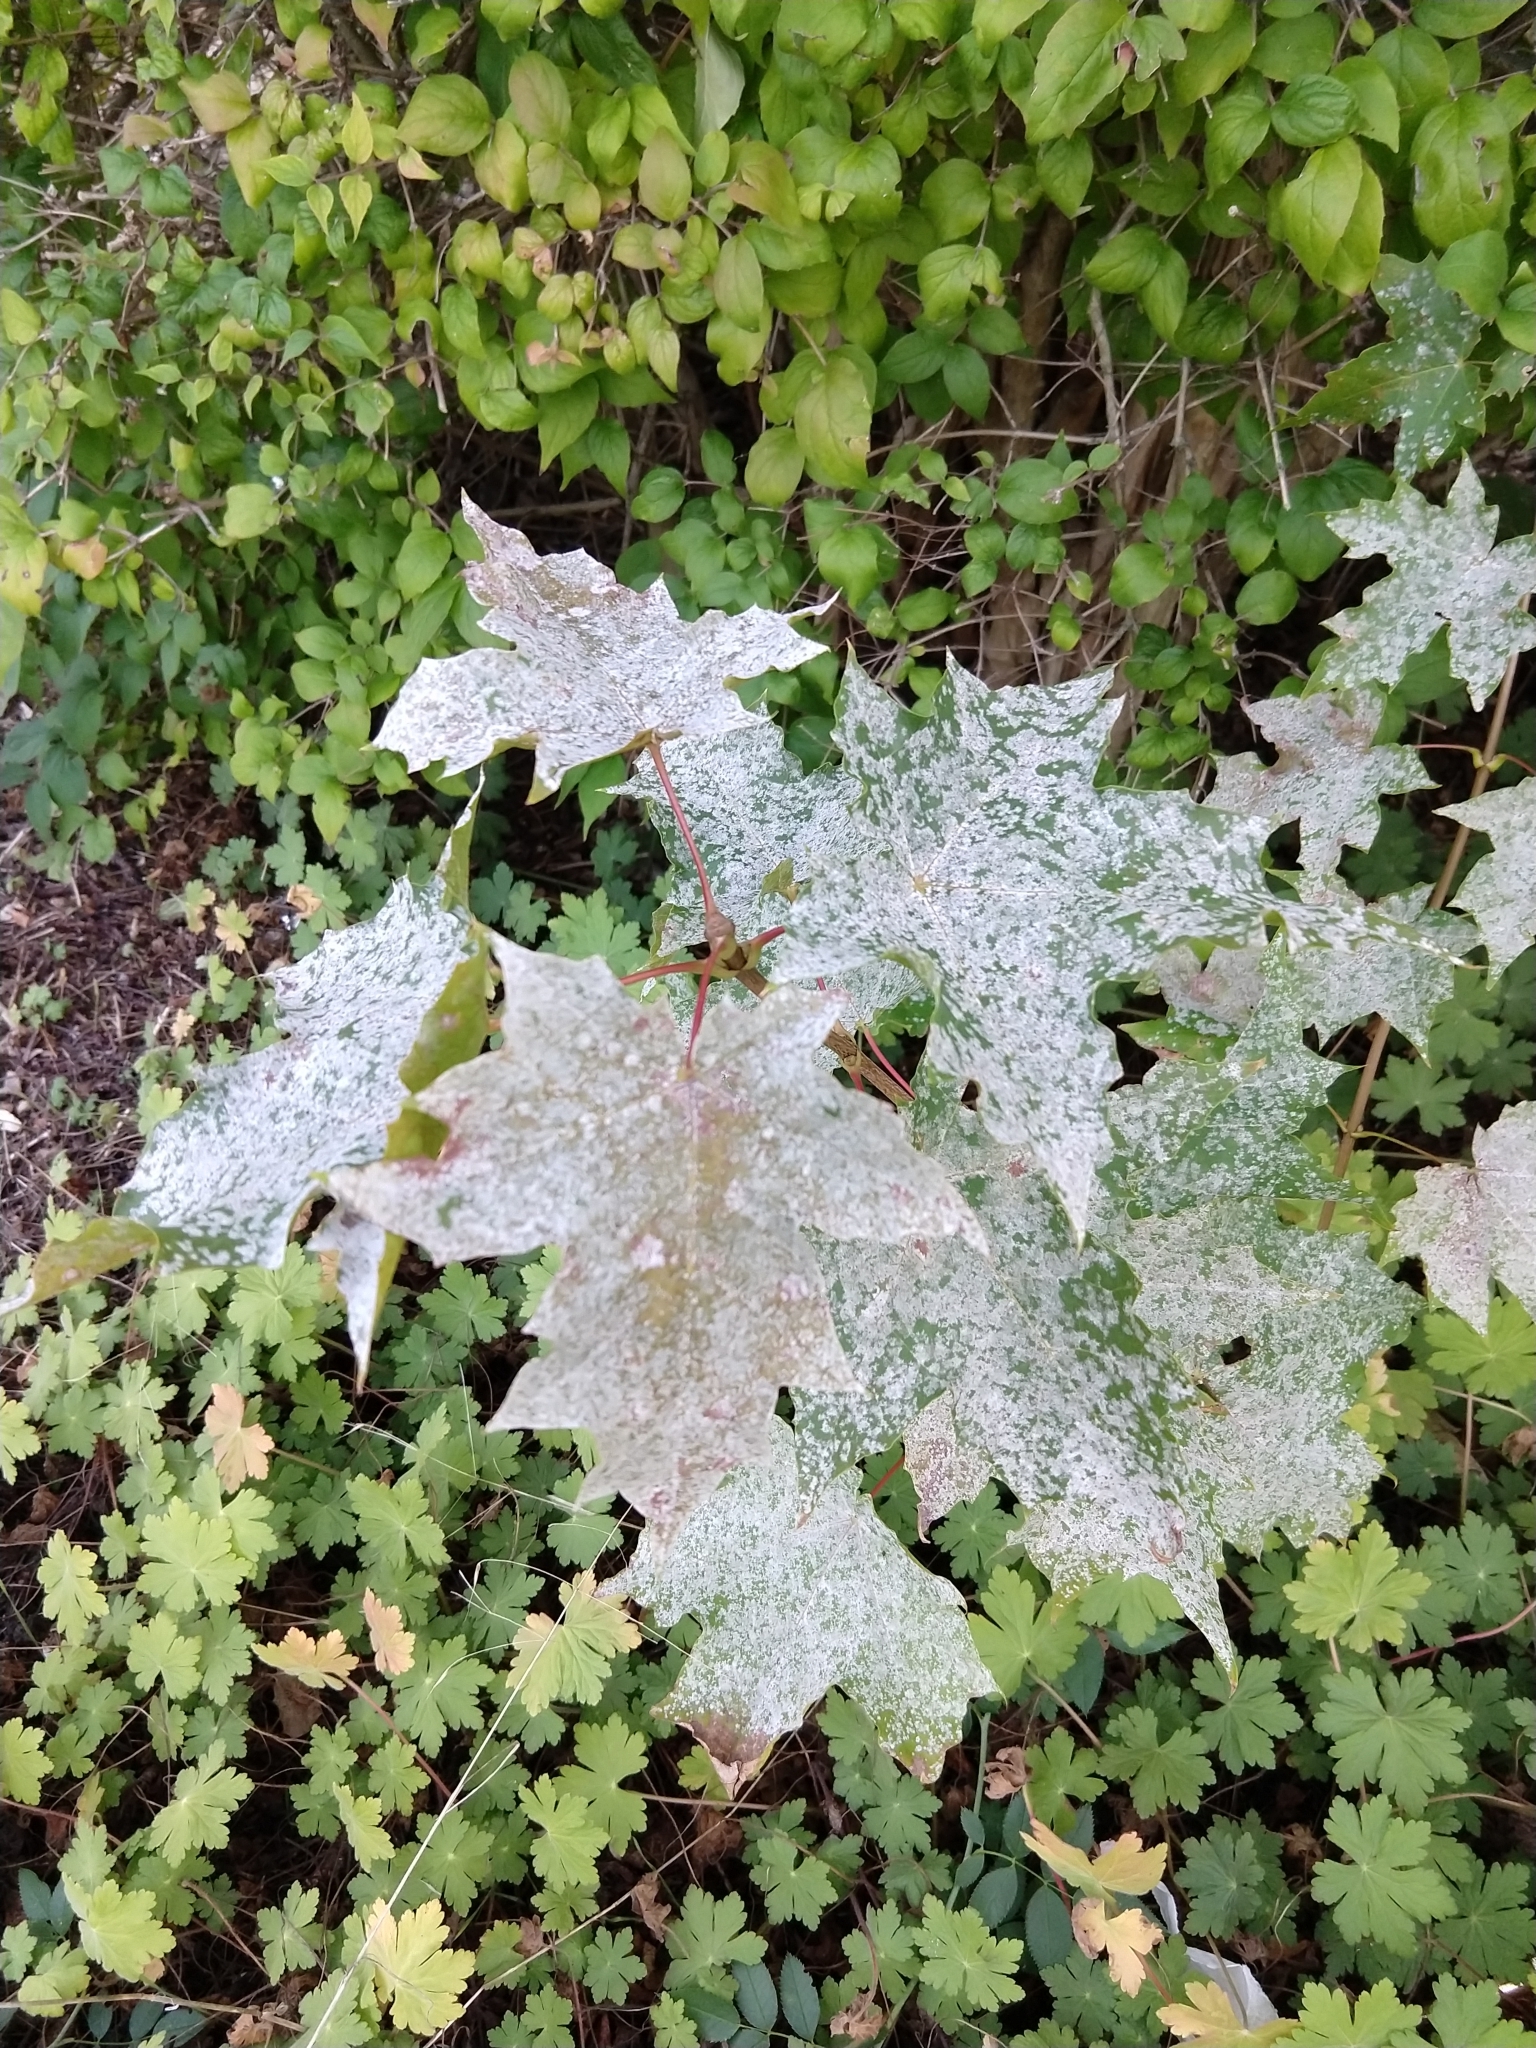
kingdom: Fungi
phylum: Ascomycota
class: Leotiomycetes
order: Helotiales
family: Erysiphaceae
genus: Sawadaea
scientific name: Sawadaea tulasnei
